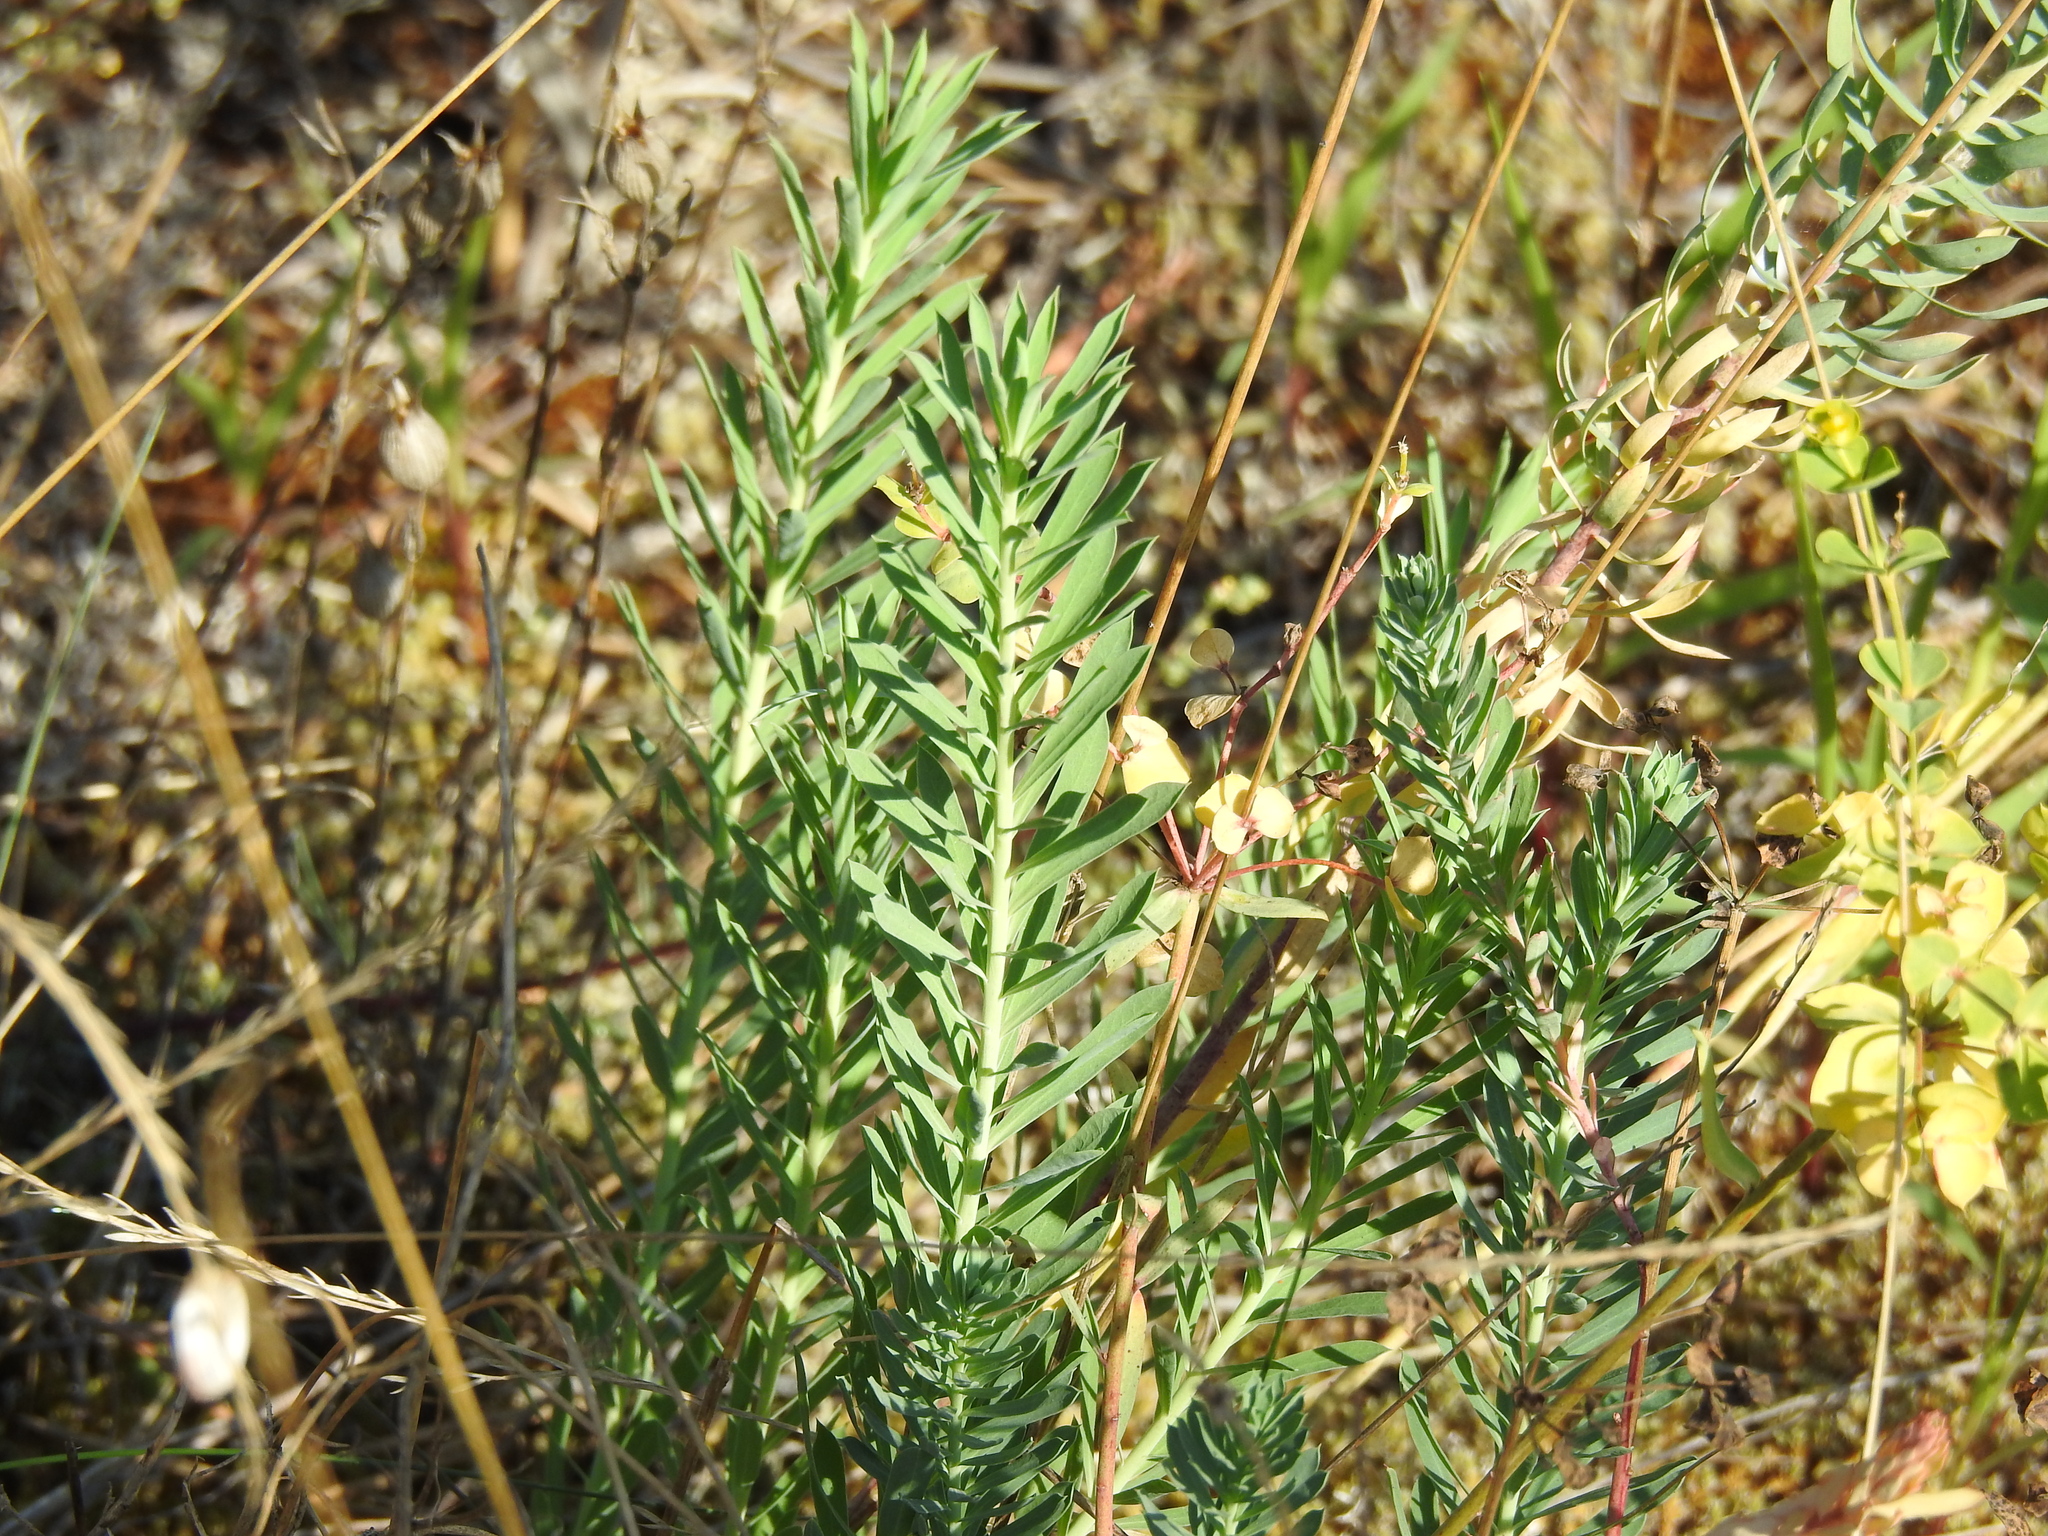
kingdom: Plantae
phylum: Tracheophyta
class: Magnoliopsida
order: Malpighiales
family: Euphorbiaceae
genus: Euphorbia
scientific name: Euphorbia seguieriana
